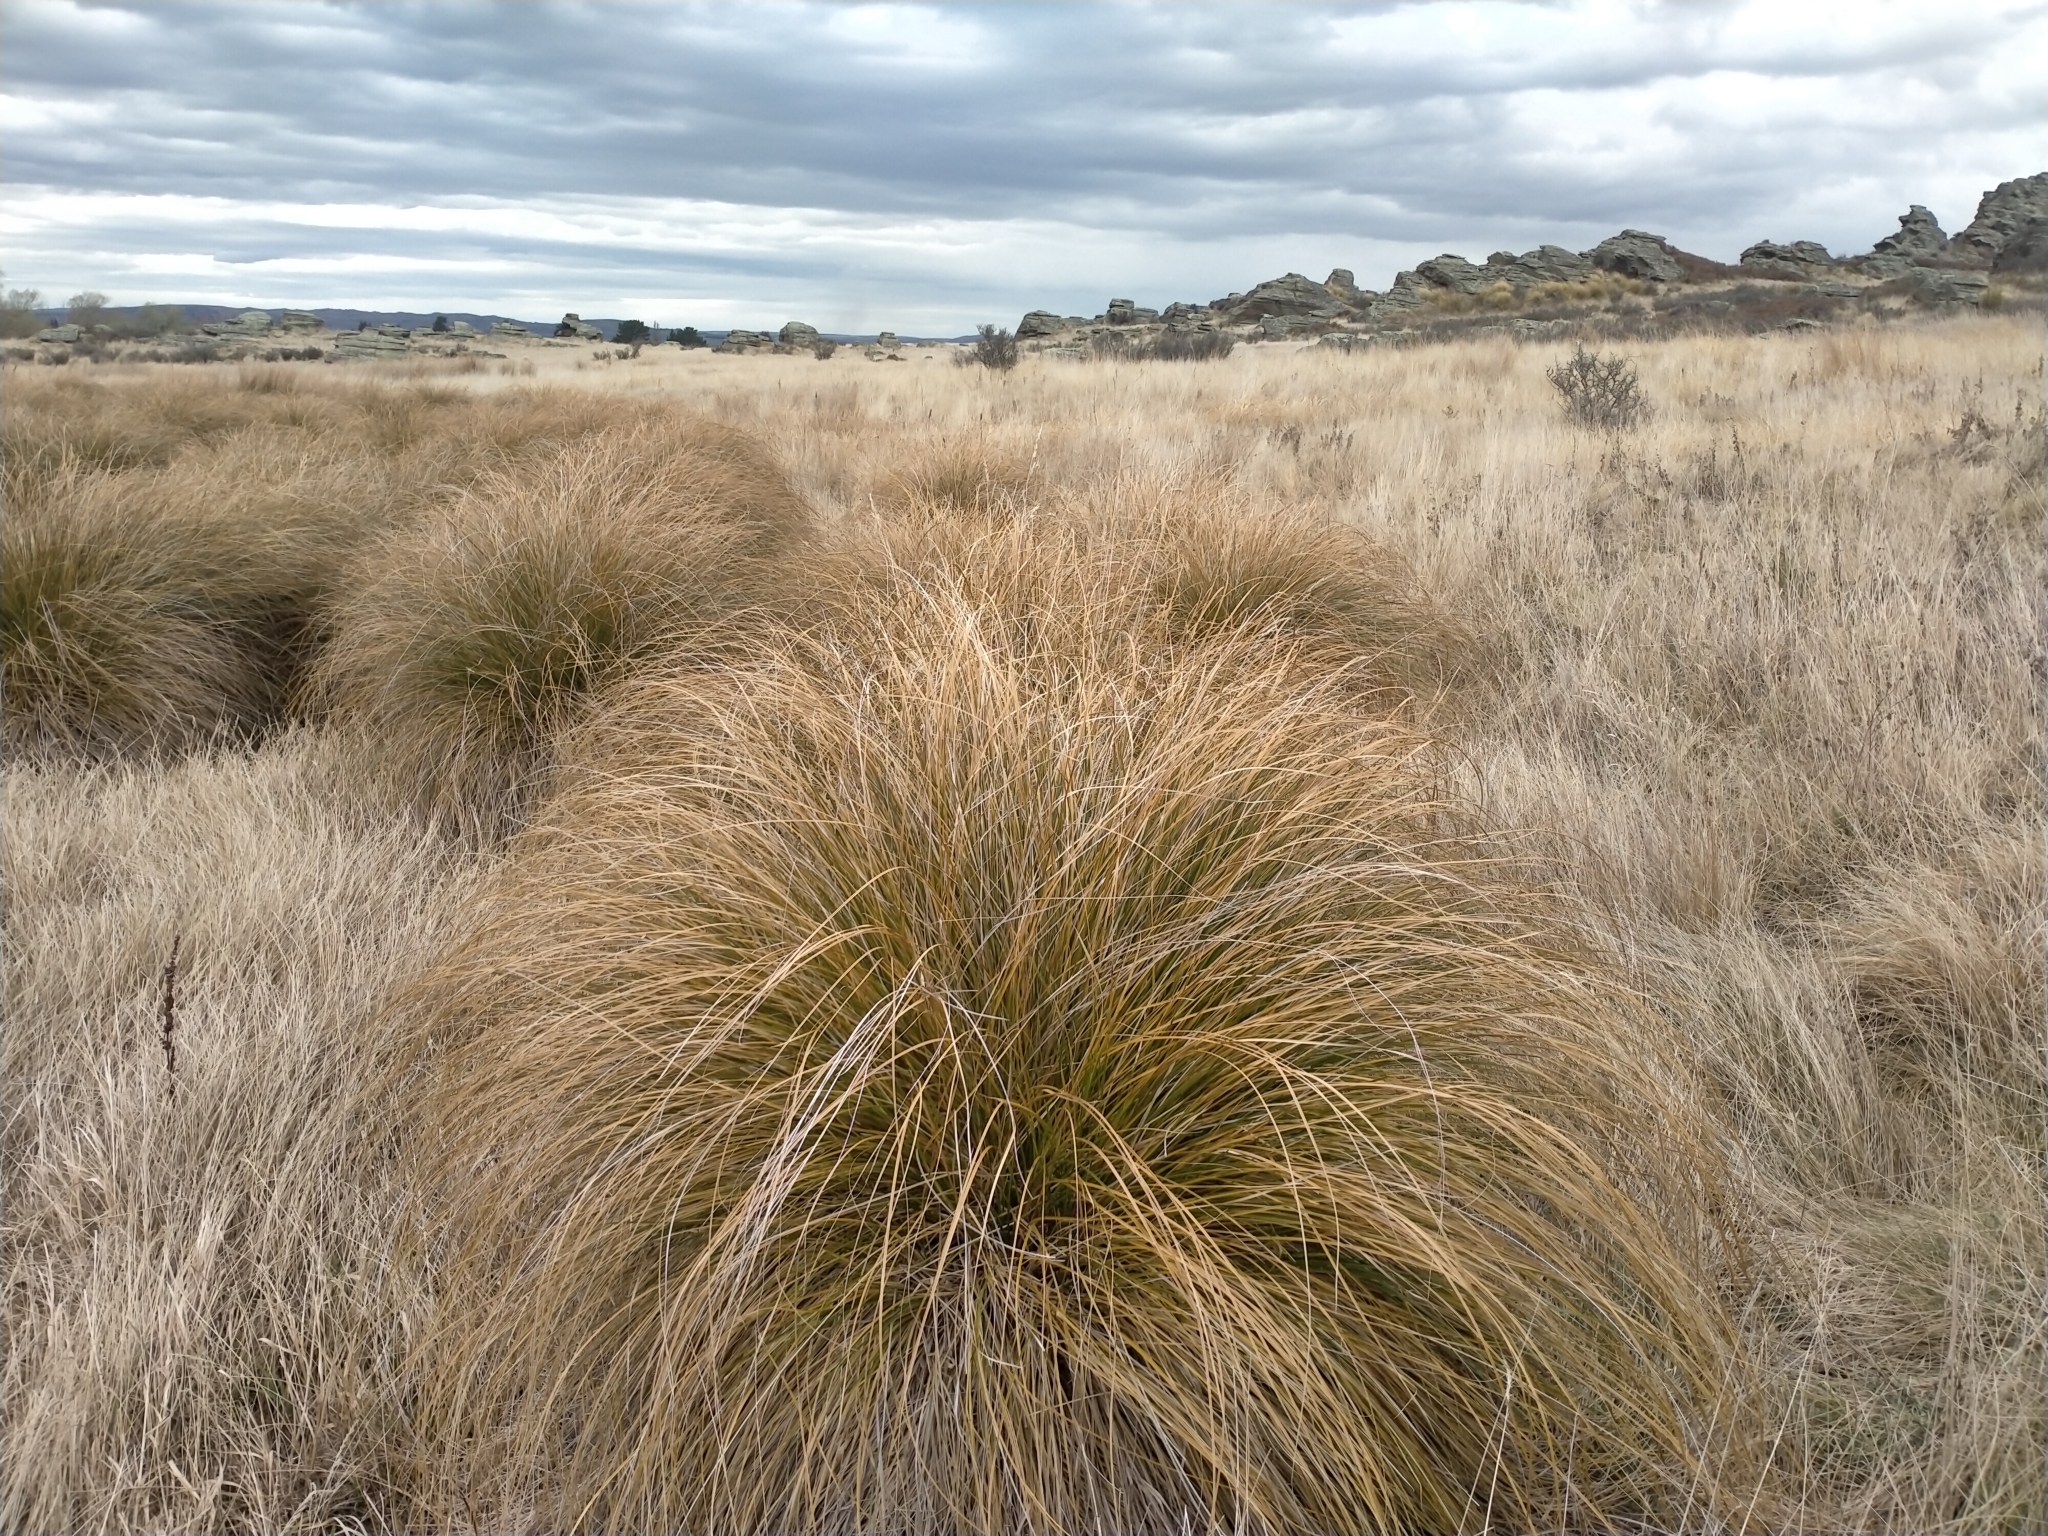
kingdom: Plantae
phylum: Tracheophyta
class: Liliopsida
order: Poales
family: Cyperaceae
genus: Carex
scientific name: Carex secta
